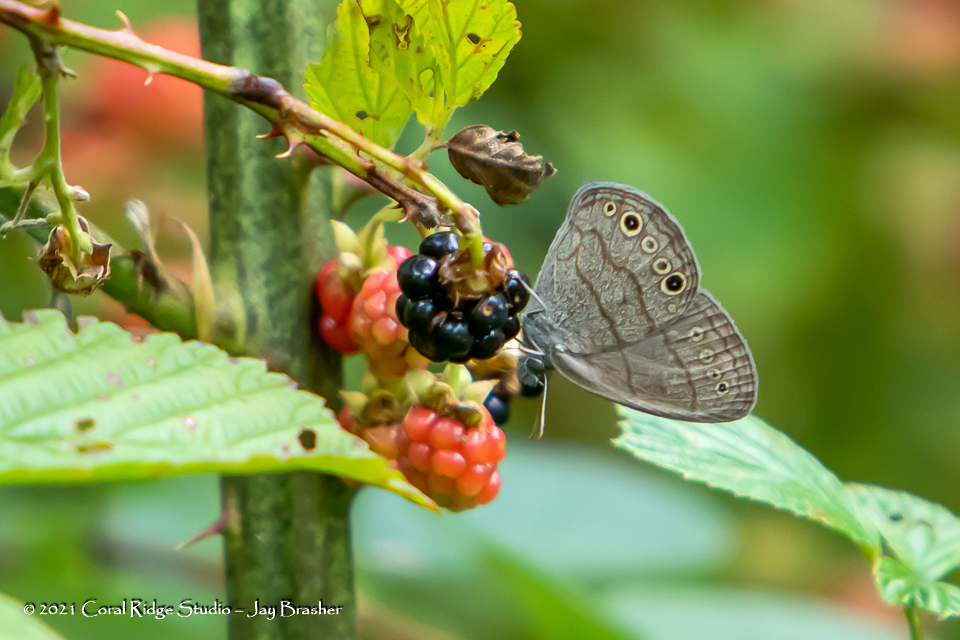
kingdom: Animalia
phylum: Arthropoda
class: Insecta
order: Lepidoptera
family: Nymphalidae
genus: Hermeuptychia
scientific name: Hermeuptychia hermes
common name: Hermes satyr
